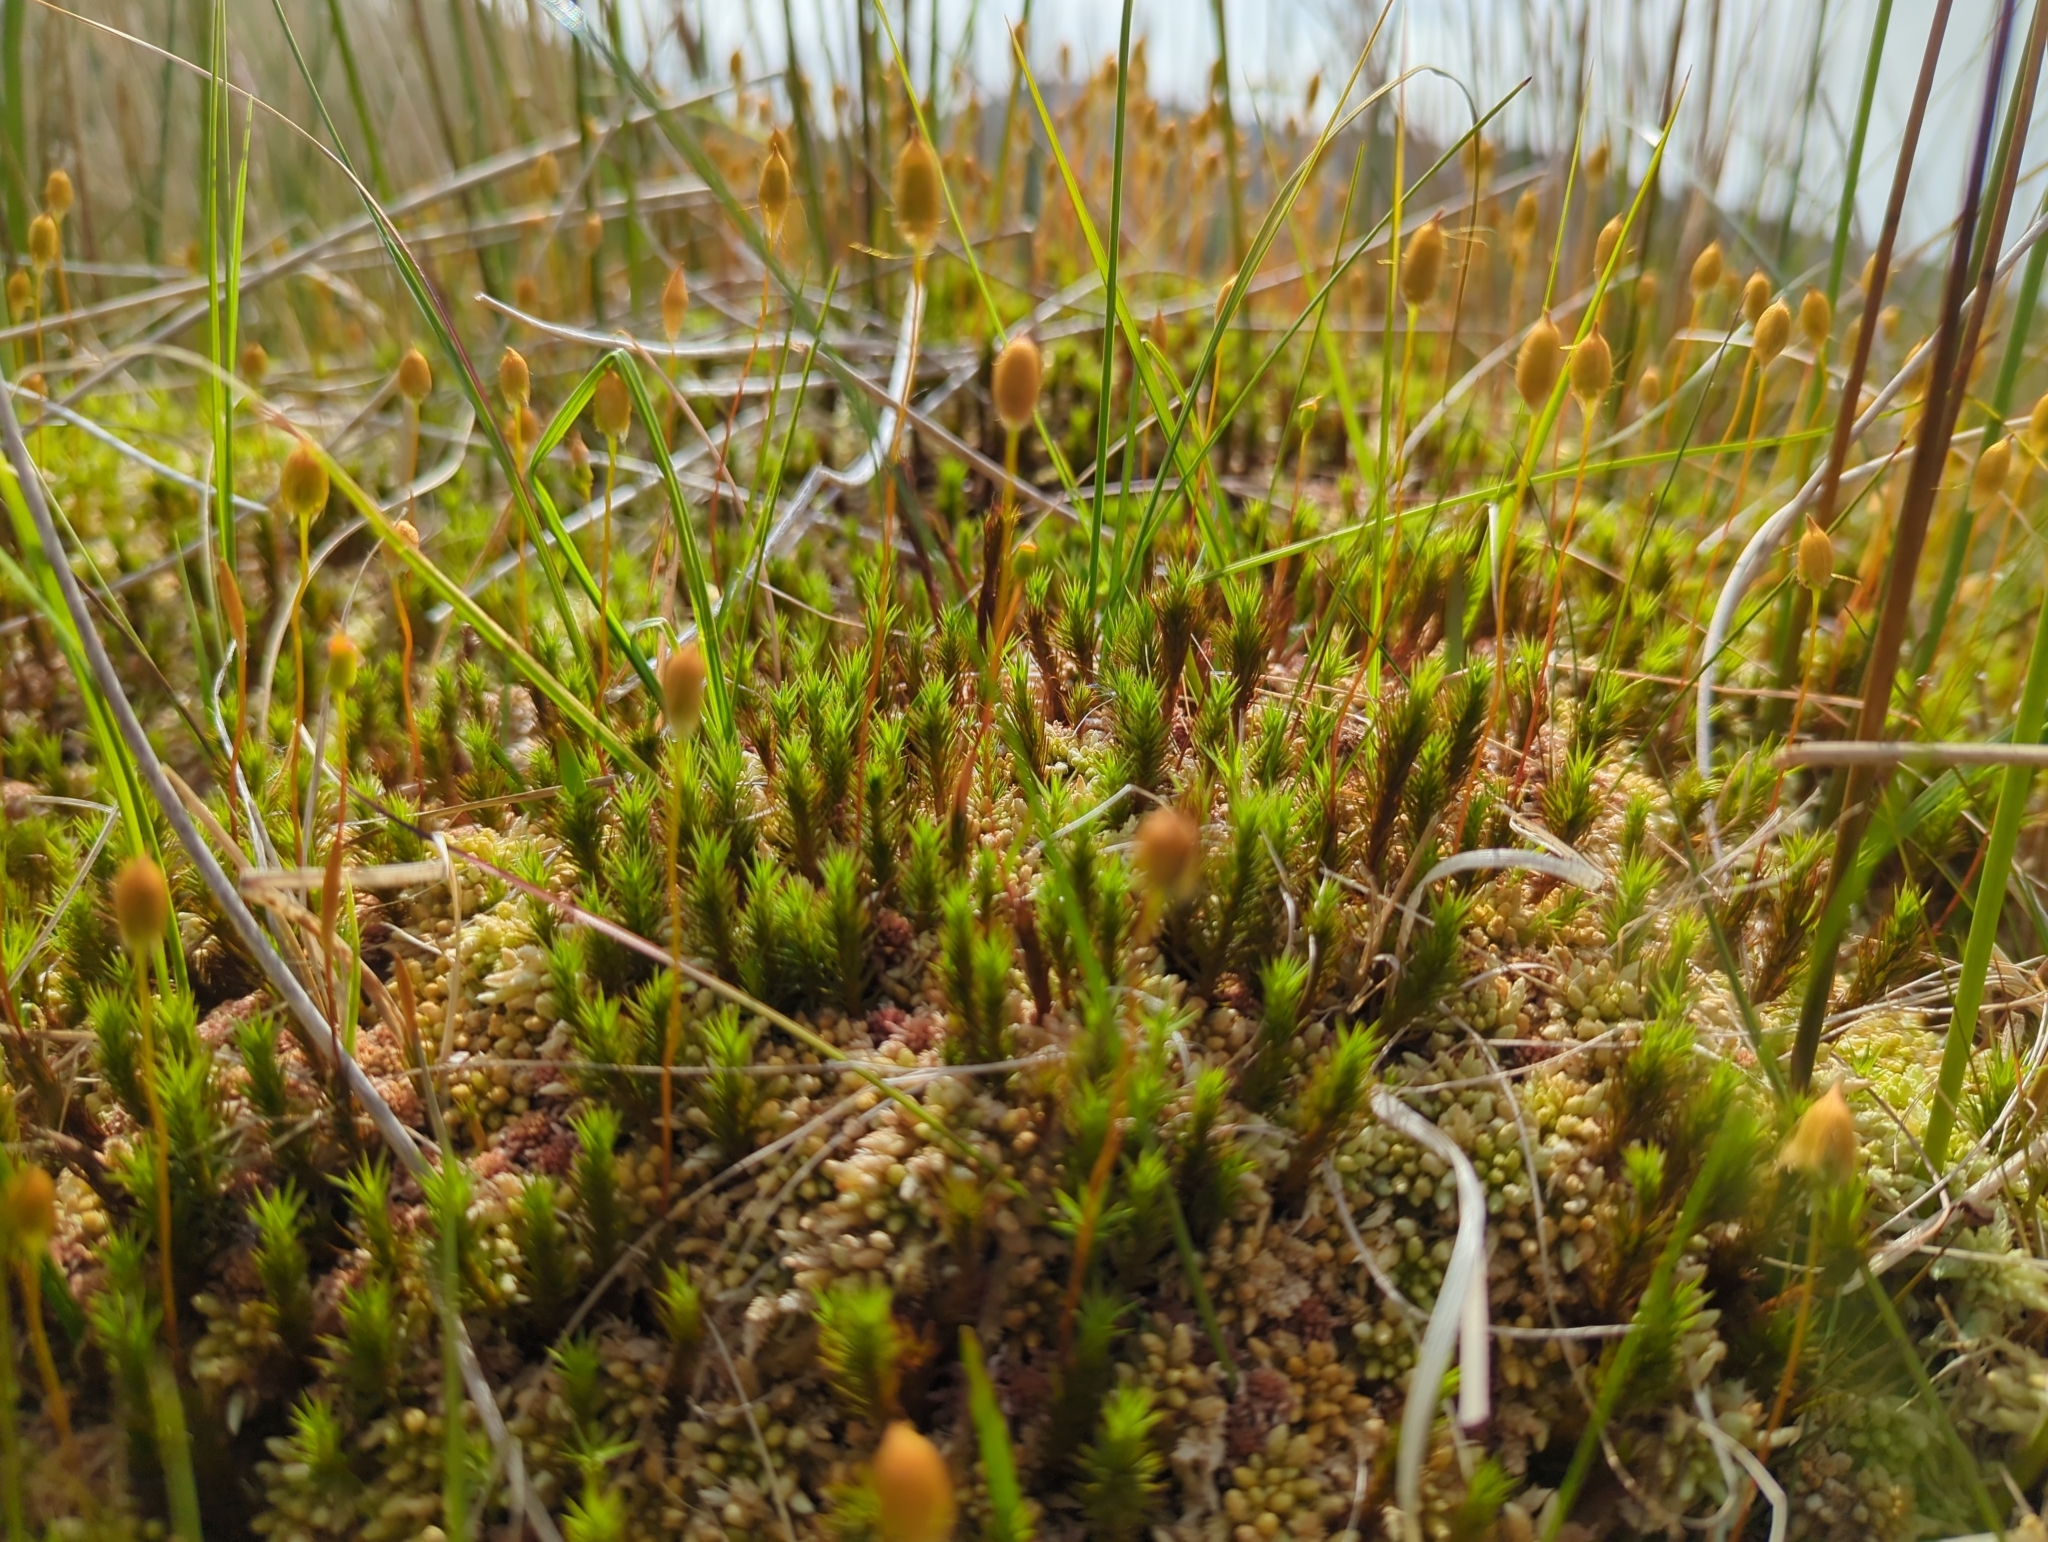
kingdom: Plantae
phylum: Bryophyta
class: Polytrichopsida
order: Polytrichales
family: Polytrichaceae
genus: Polytrichum
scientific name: Polytrichum strictum
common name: Bog haircap moss
